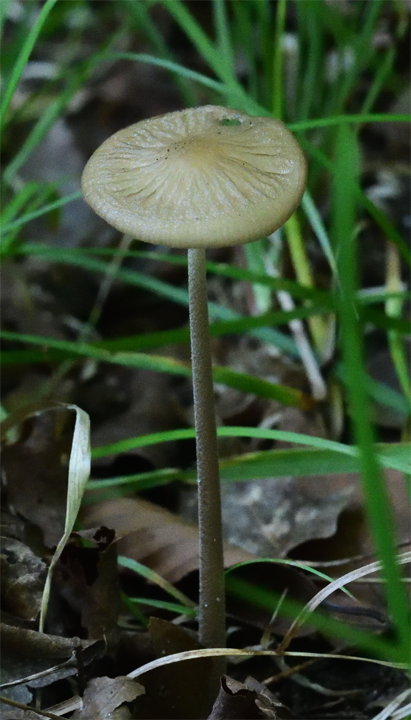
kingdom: Fungi
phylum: Basidiomycota
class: Agaricomycetes
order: Agaricales
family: Physalacriaceae
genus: Hymenopellis
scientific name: Hymenopellis furfuracea
